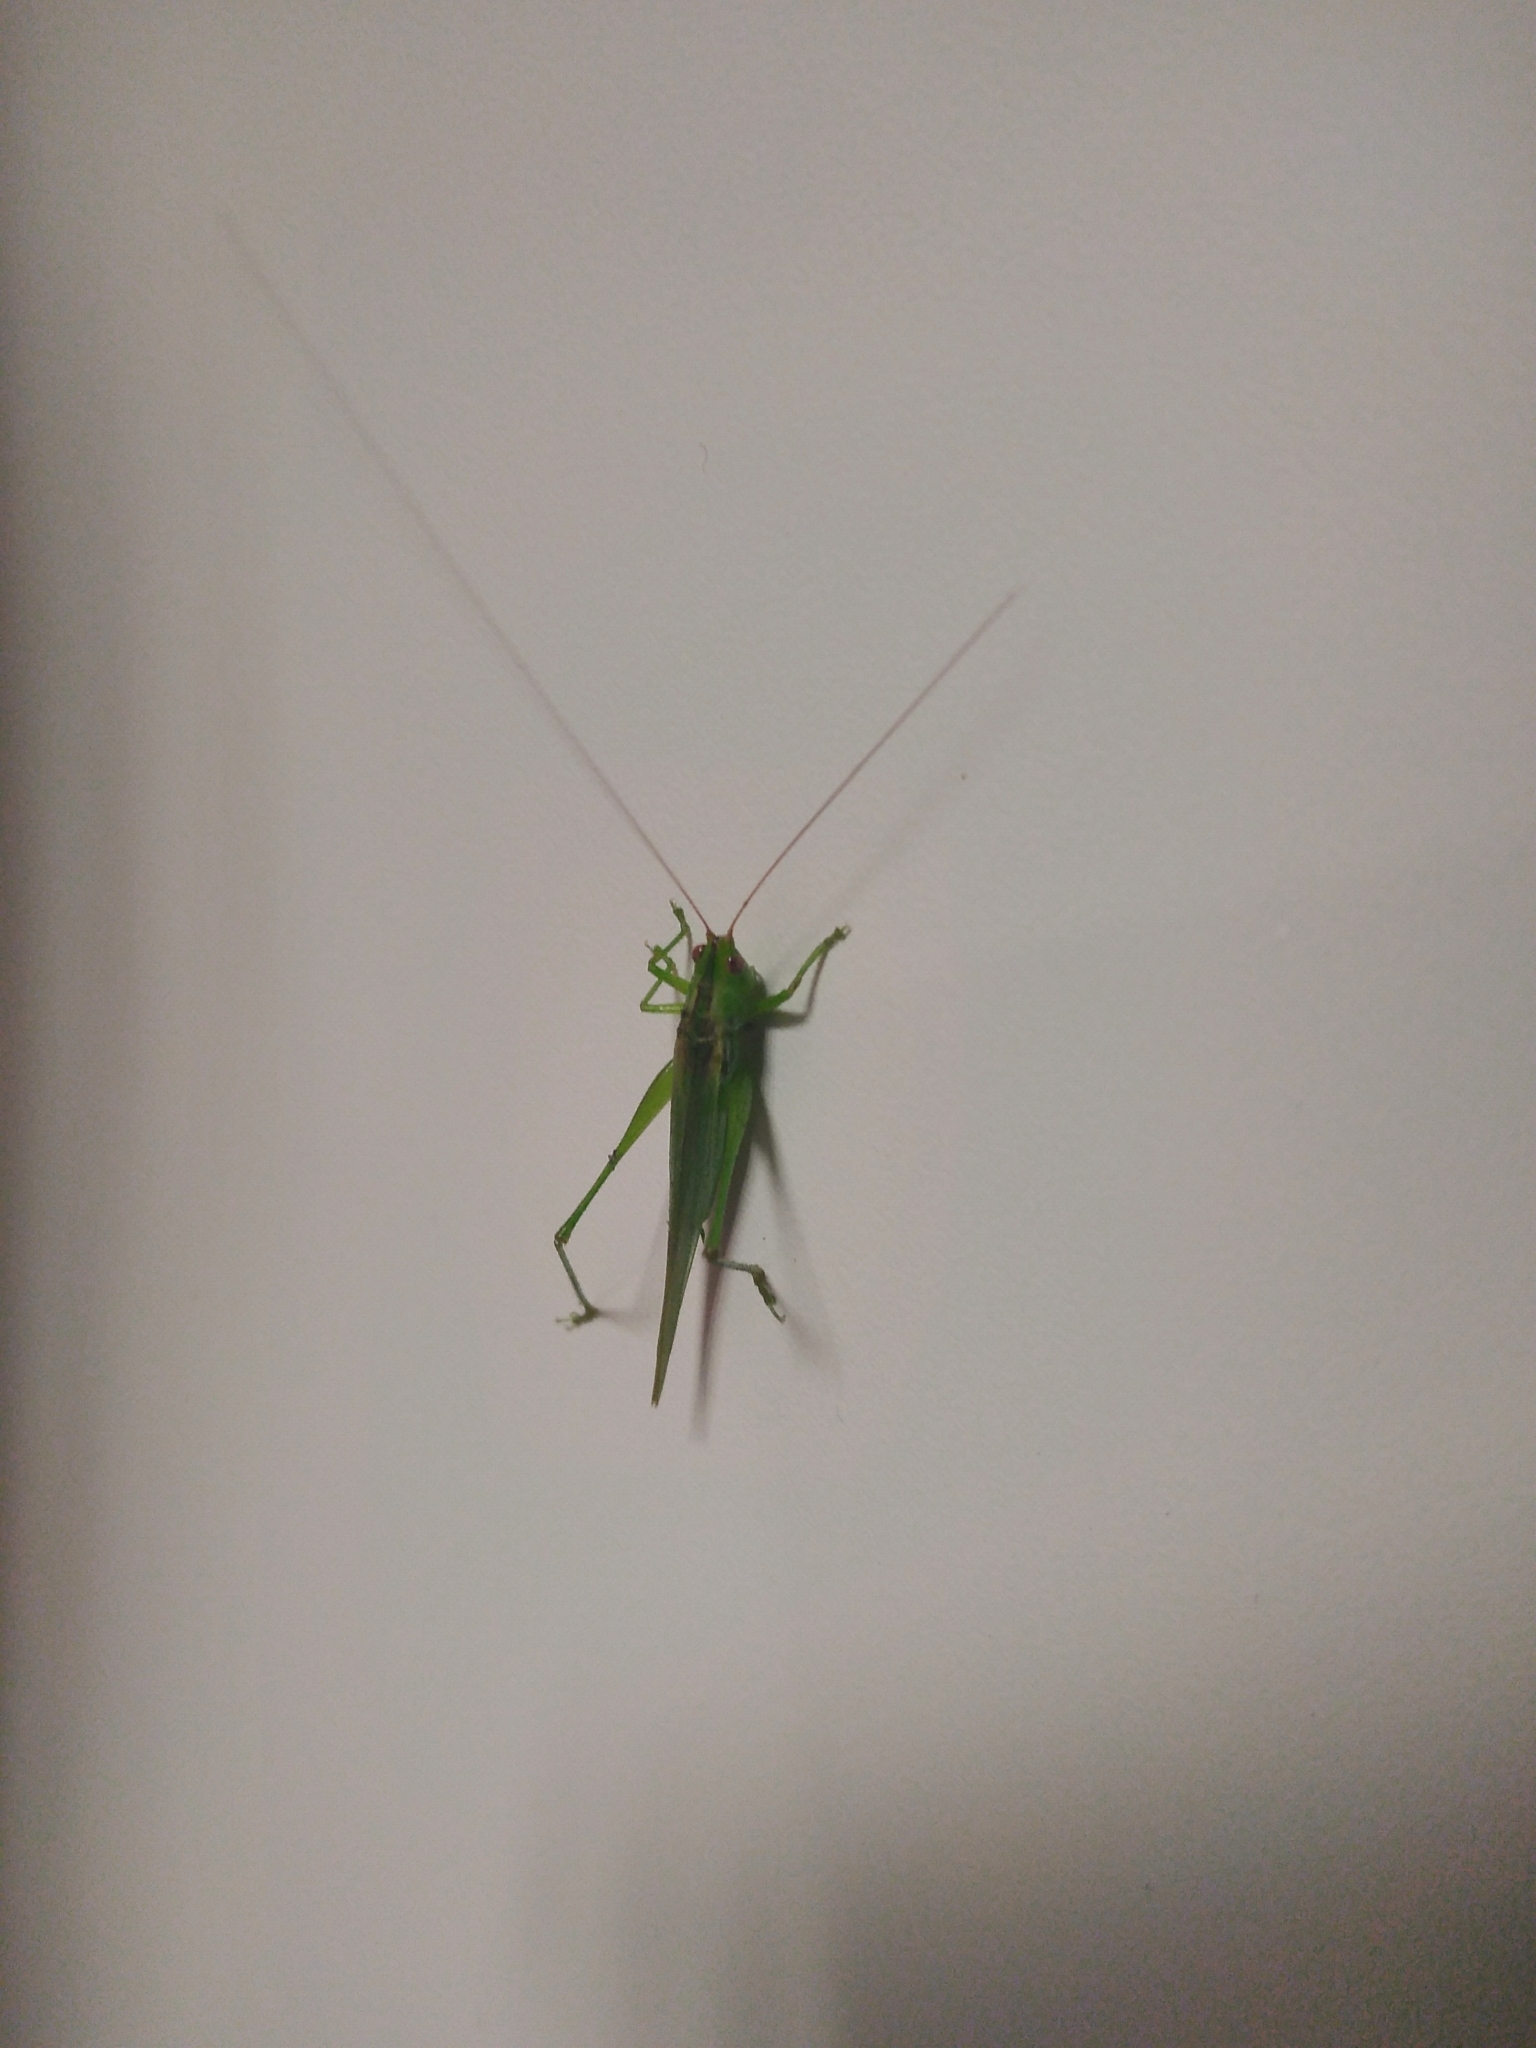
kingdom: Animalia
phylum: Arthropoda
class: Insecta
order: Orthoptera
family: Tettigoniidae
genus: Conocephalus
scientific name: Conocephalus longipes
